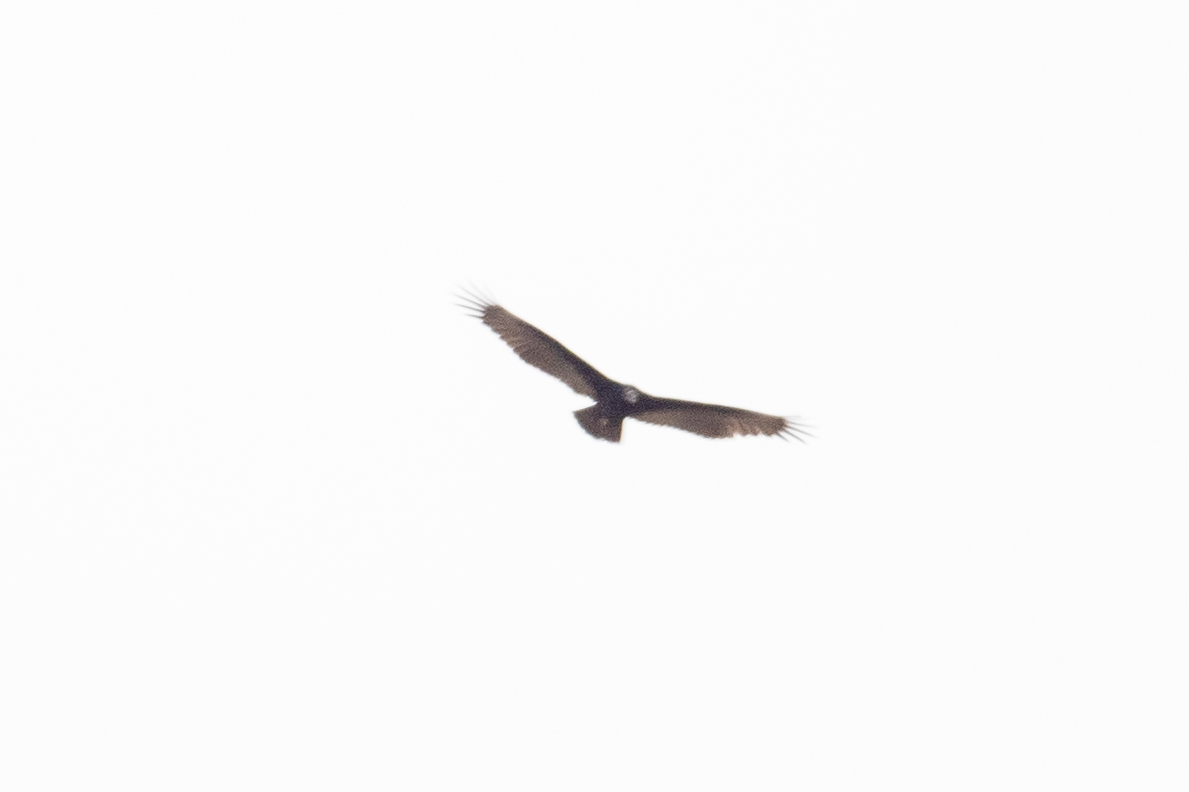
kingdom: Animalia
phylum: Chordata
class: Aves
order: Accipitriformes
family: Cathartidae
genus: Cathartes
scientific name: Cathartes aura
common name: Turkey vulture
